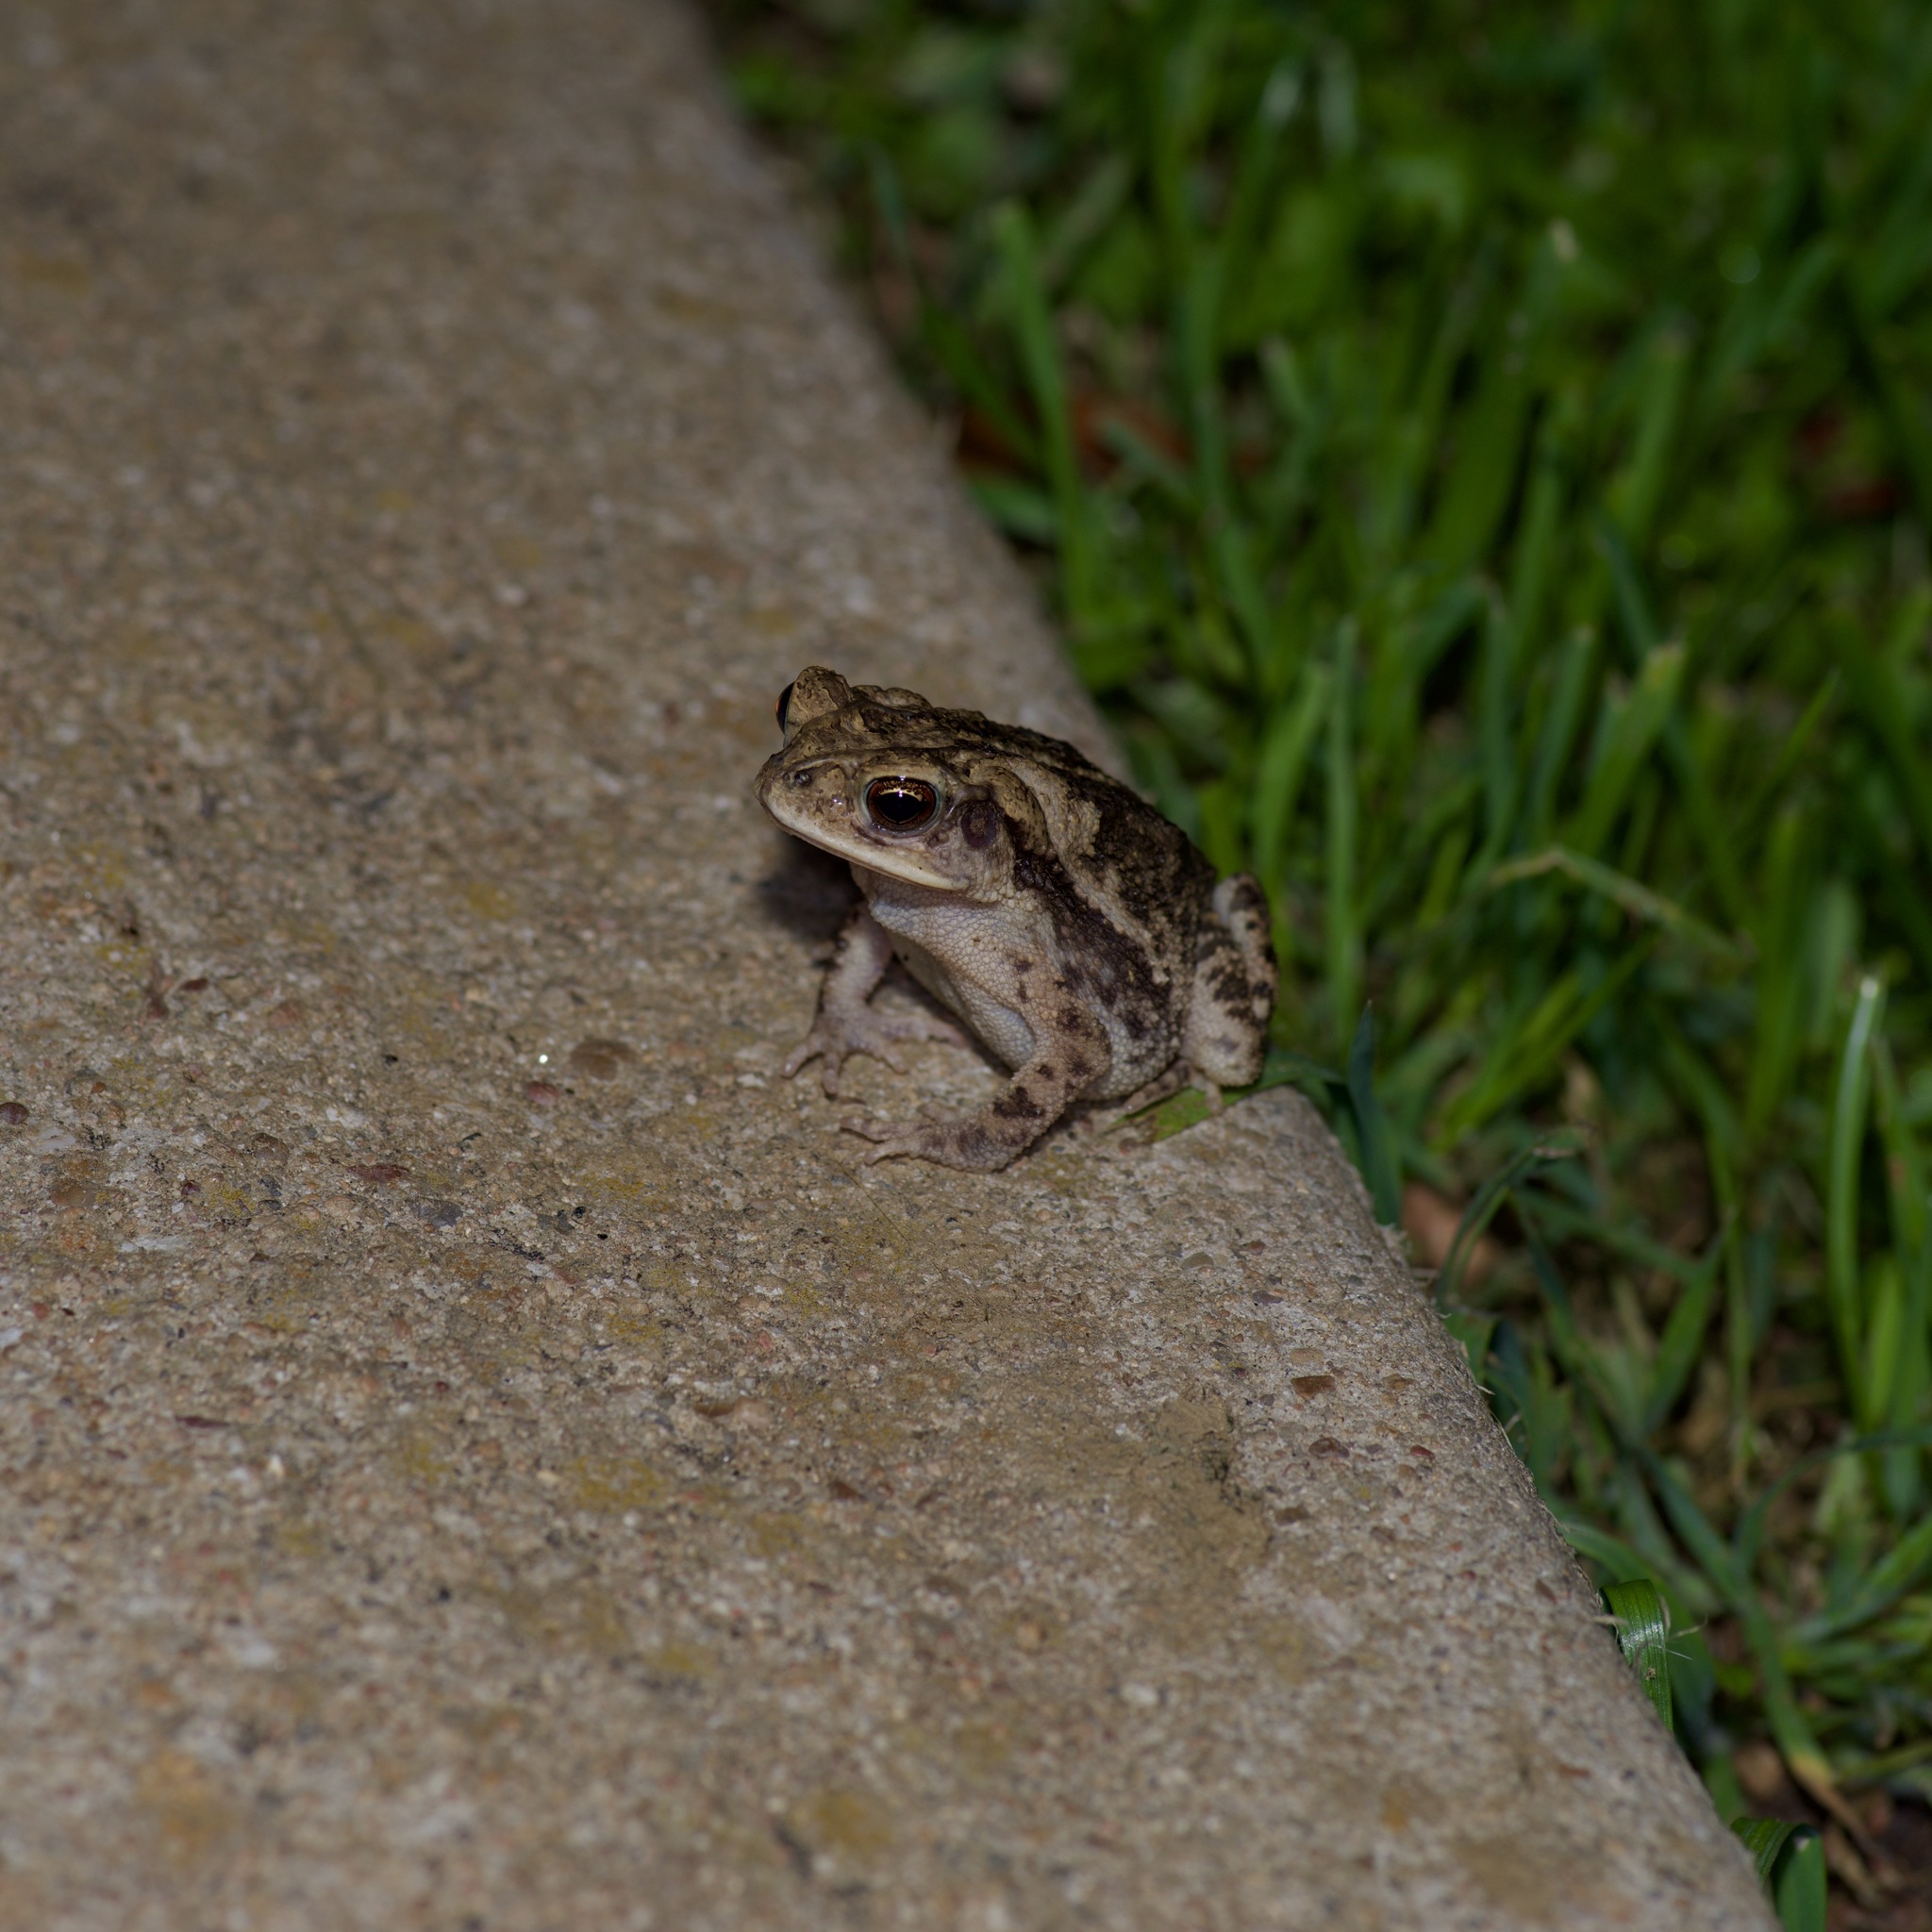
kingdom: Animalia
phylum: Chordata
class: Amphibia
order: Anura
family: Bufonidae
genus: Incilius
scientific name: Incilius nebulifer
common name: Gulf coast toad
